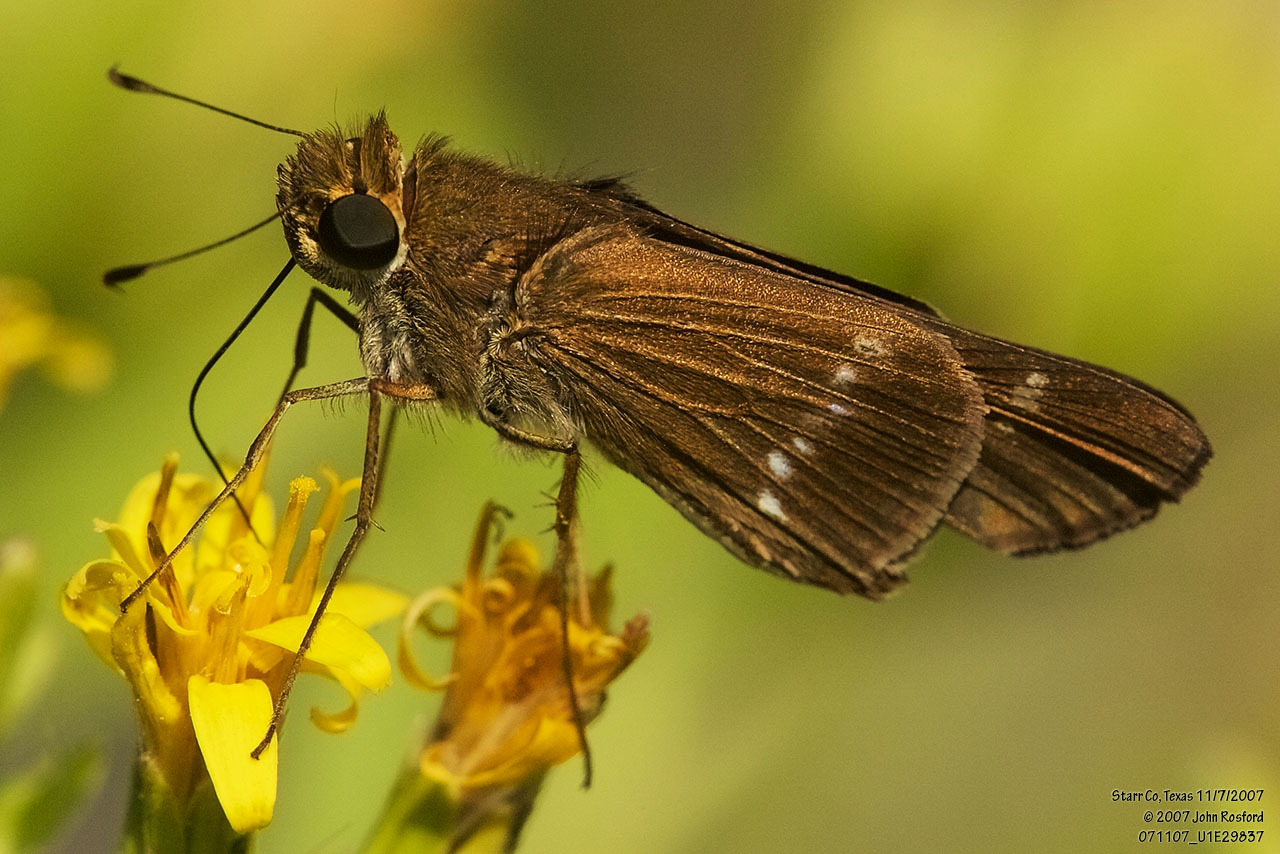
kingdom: Animalia
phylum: Arthropoda
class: Insecta
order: Lepidoptera
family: Hesperiidae
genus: Turesis
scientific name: Turesis lucas
